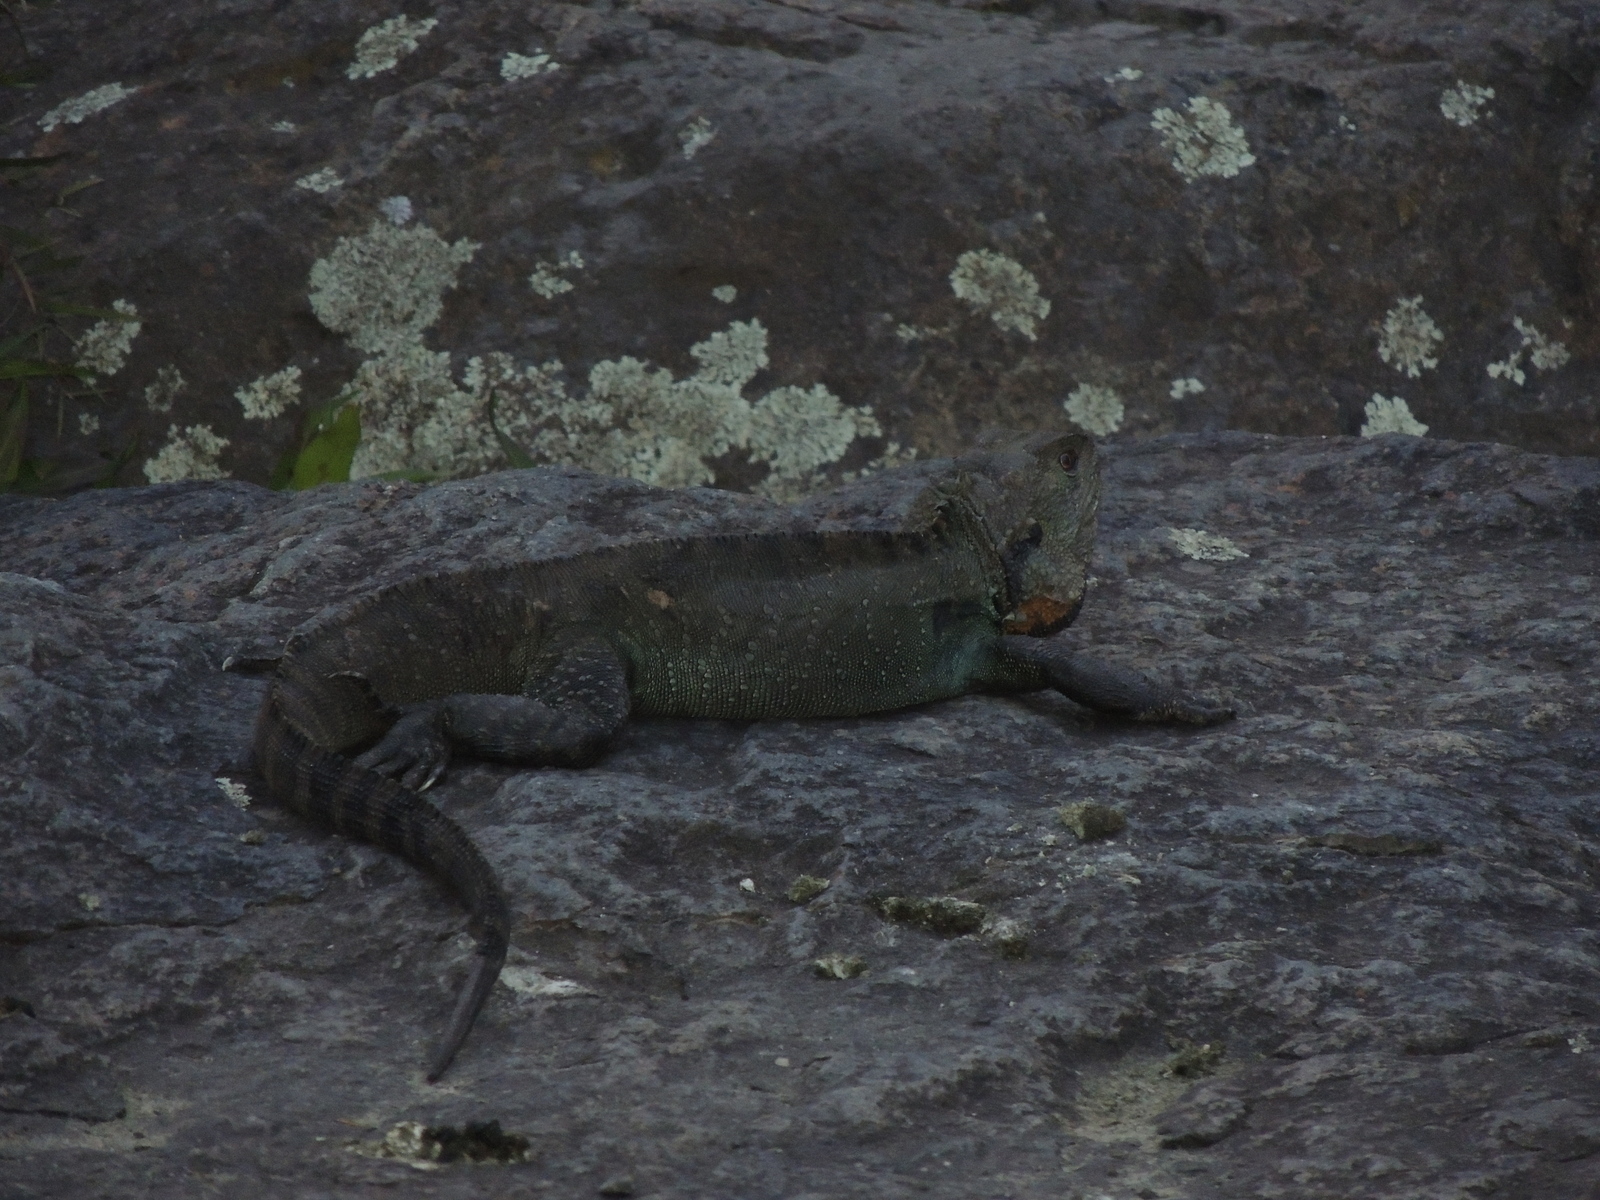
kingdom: Animalia
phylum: Chordata
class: Squamata
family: Agamidae
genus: Intellagama
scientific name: Intellagama lesueurii
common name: Eastern water dragon
